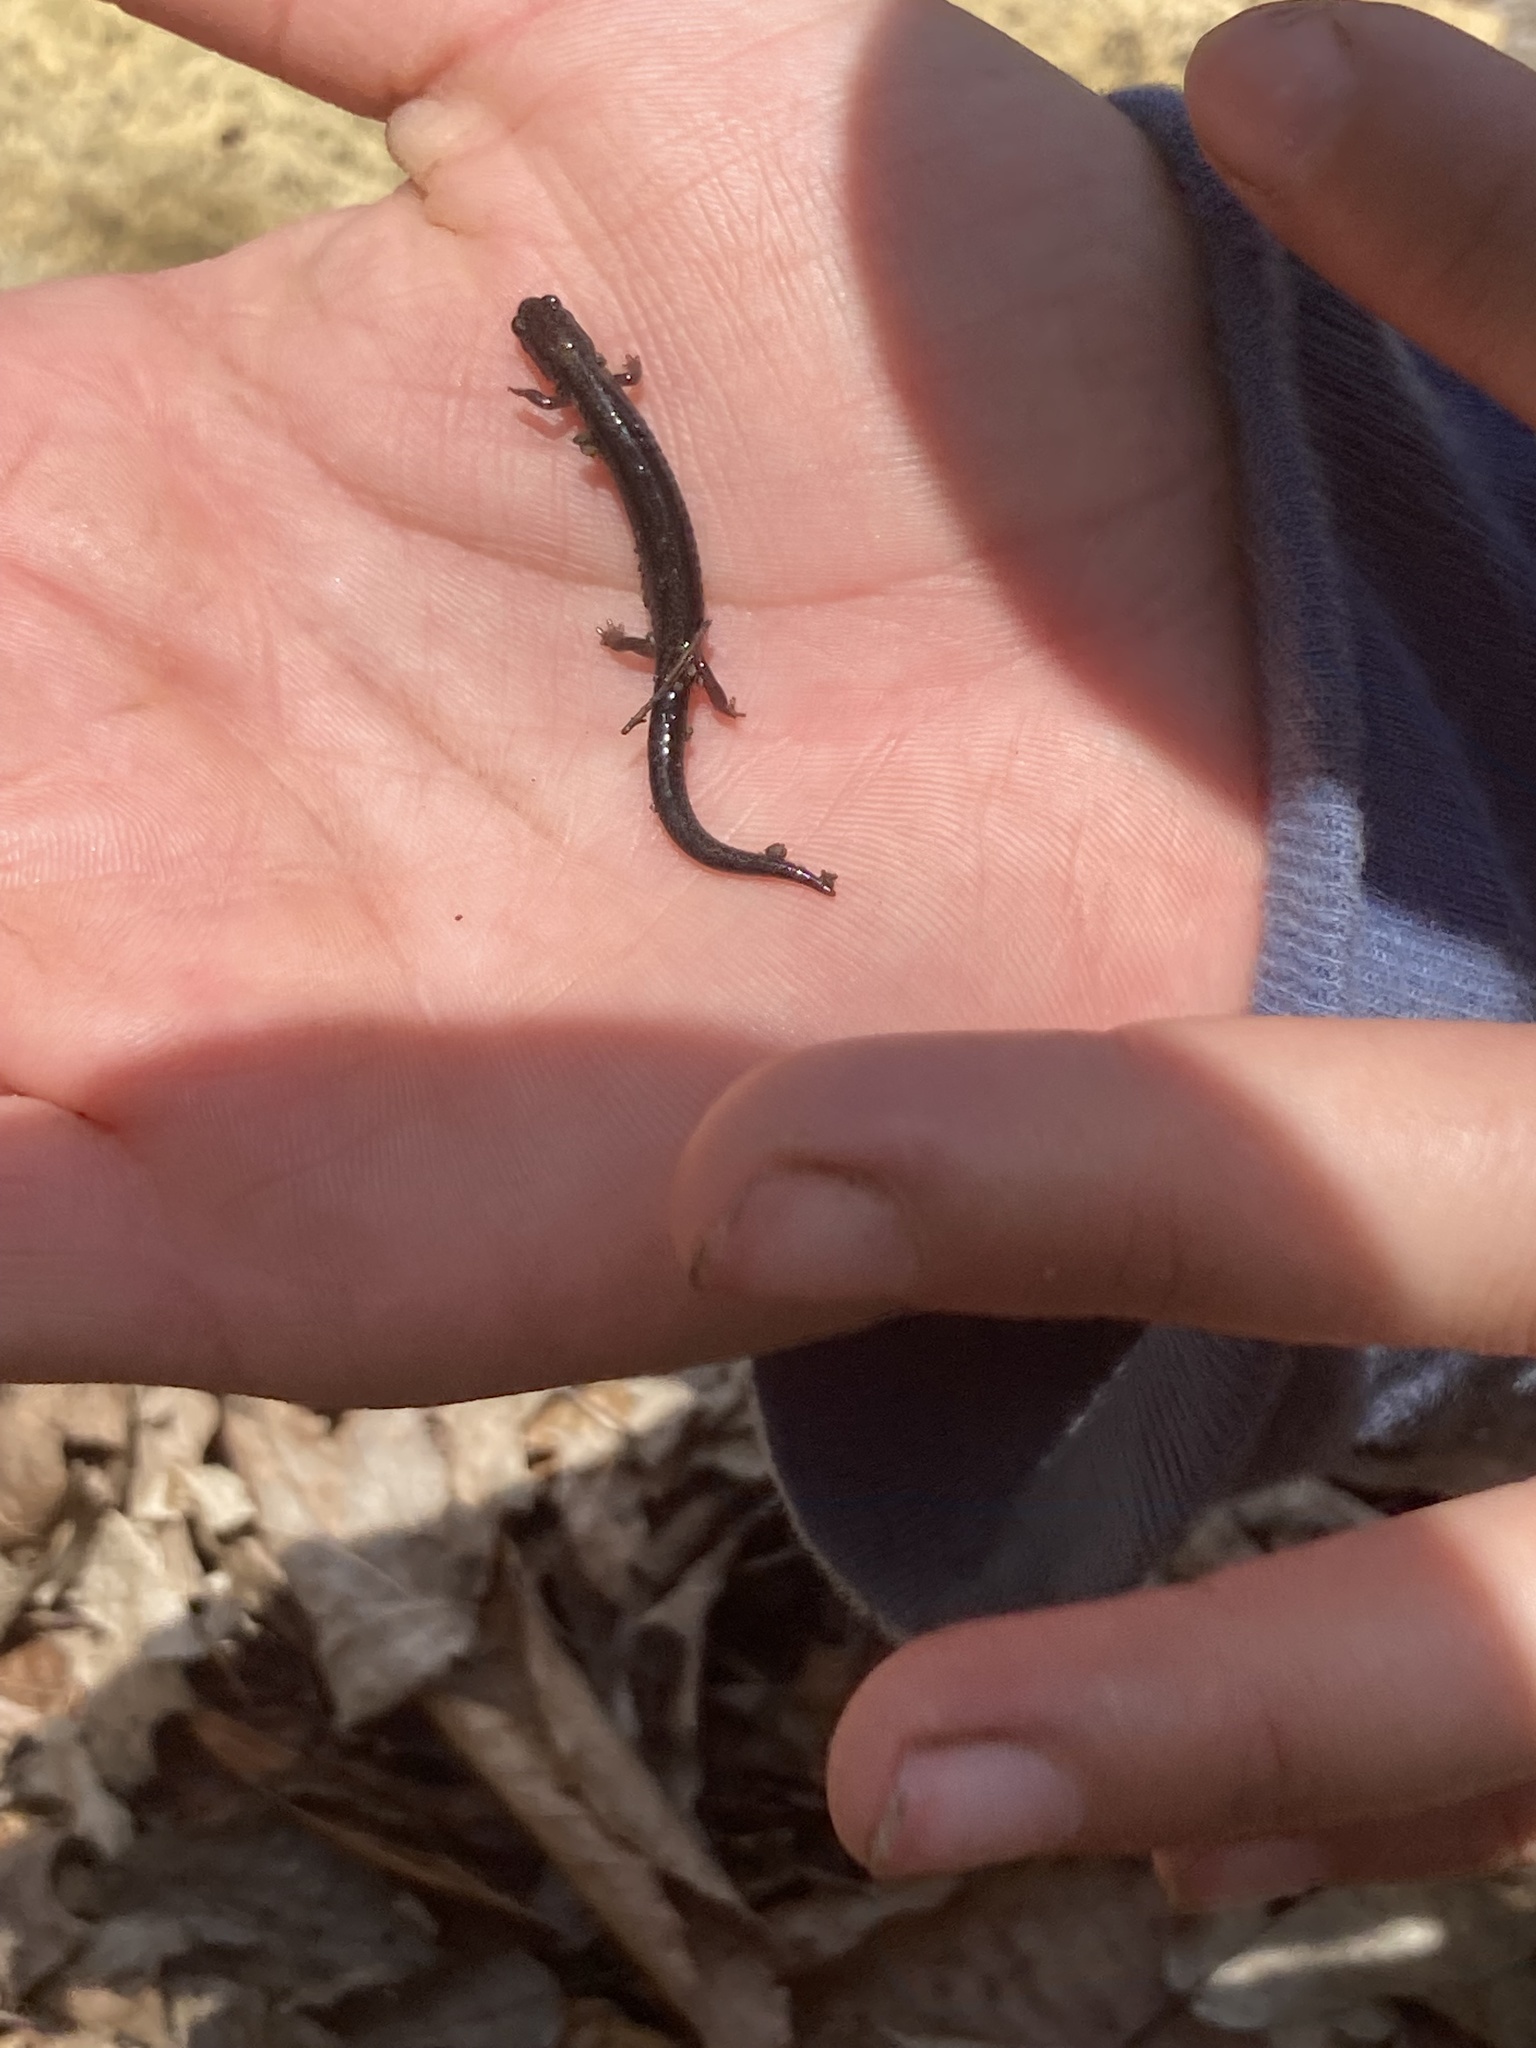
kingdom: Animalia
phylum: Chordata
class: Amphibia
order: Caudata
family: Plethodontidae
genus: Plethodon
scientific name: Plethodon richmondi
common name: Ravine salamander
